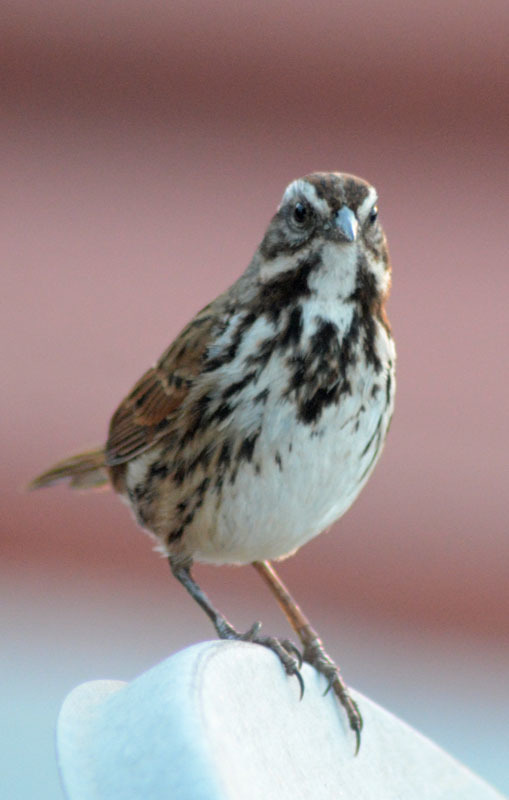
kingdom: Animalia
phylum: Chordata
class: Aves
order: Passeriformes
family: Passerellidae
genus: Melospiza
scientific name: Melospiza melodia
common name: Song sparrow
